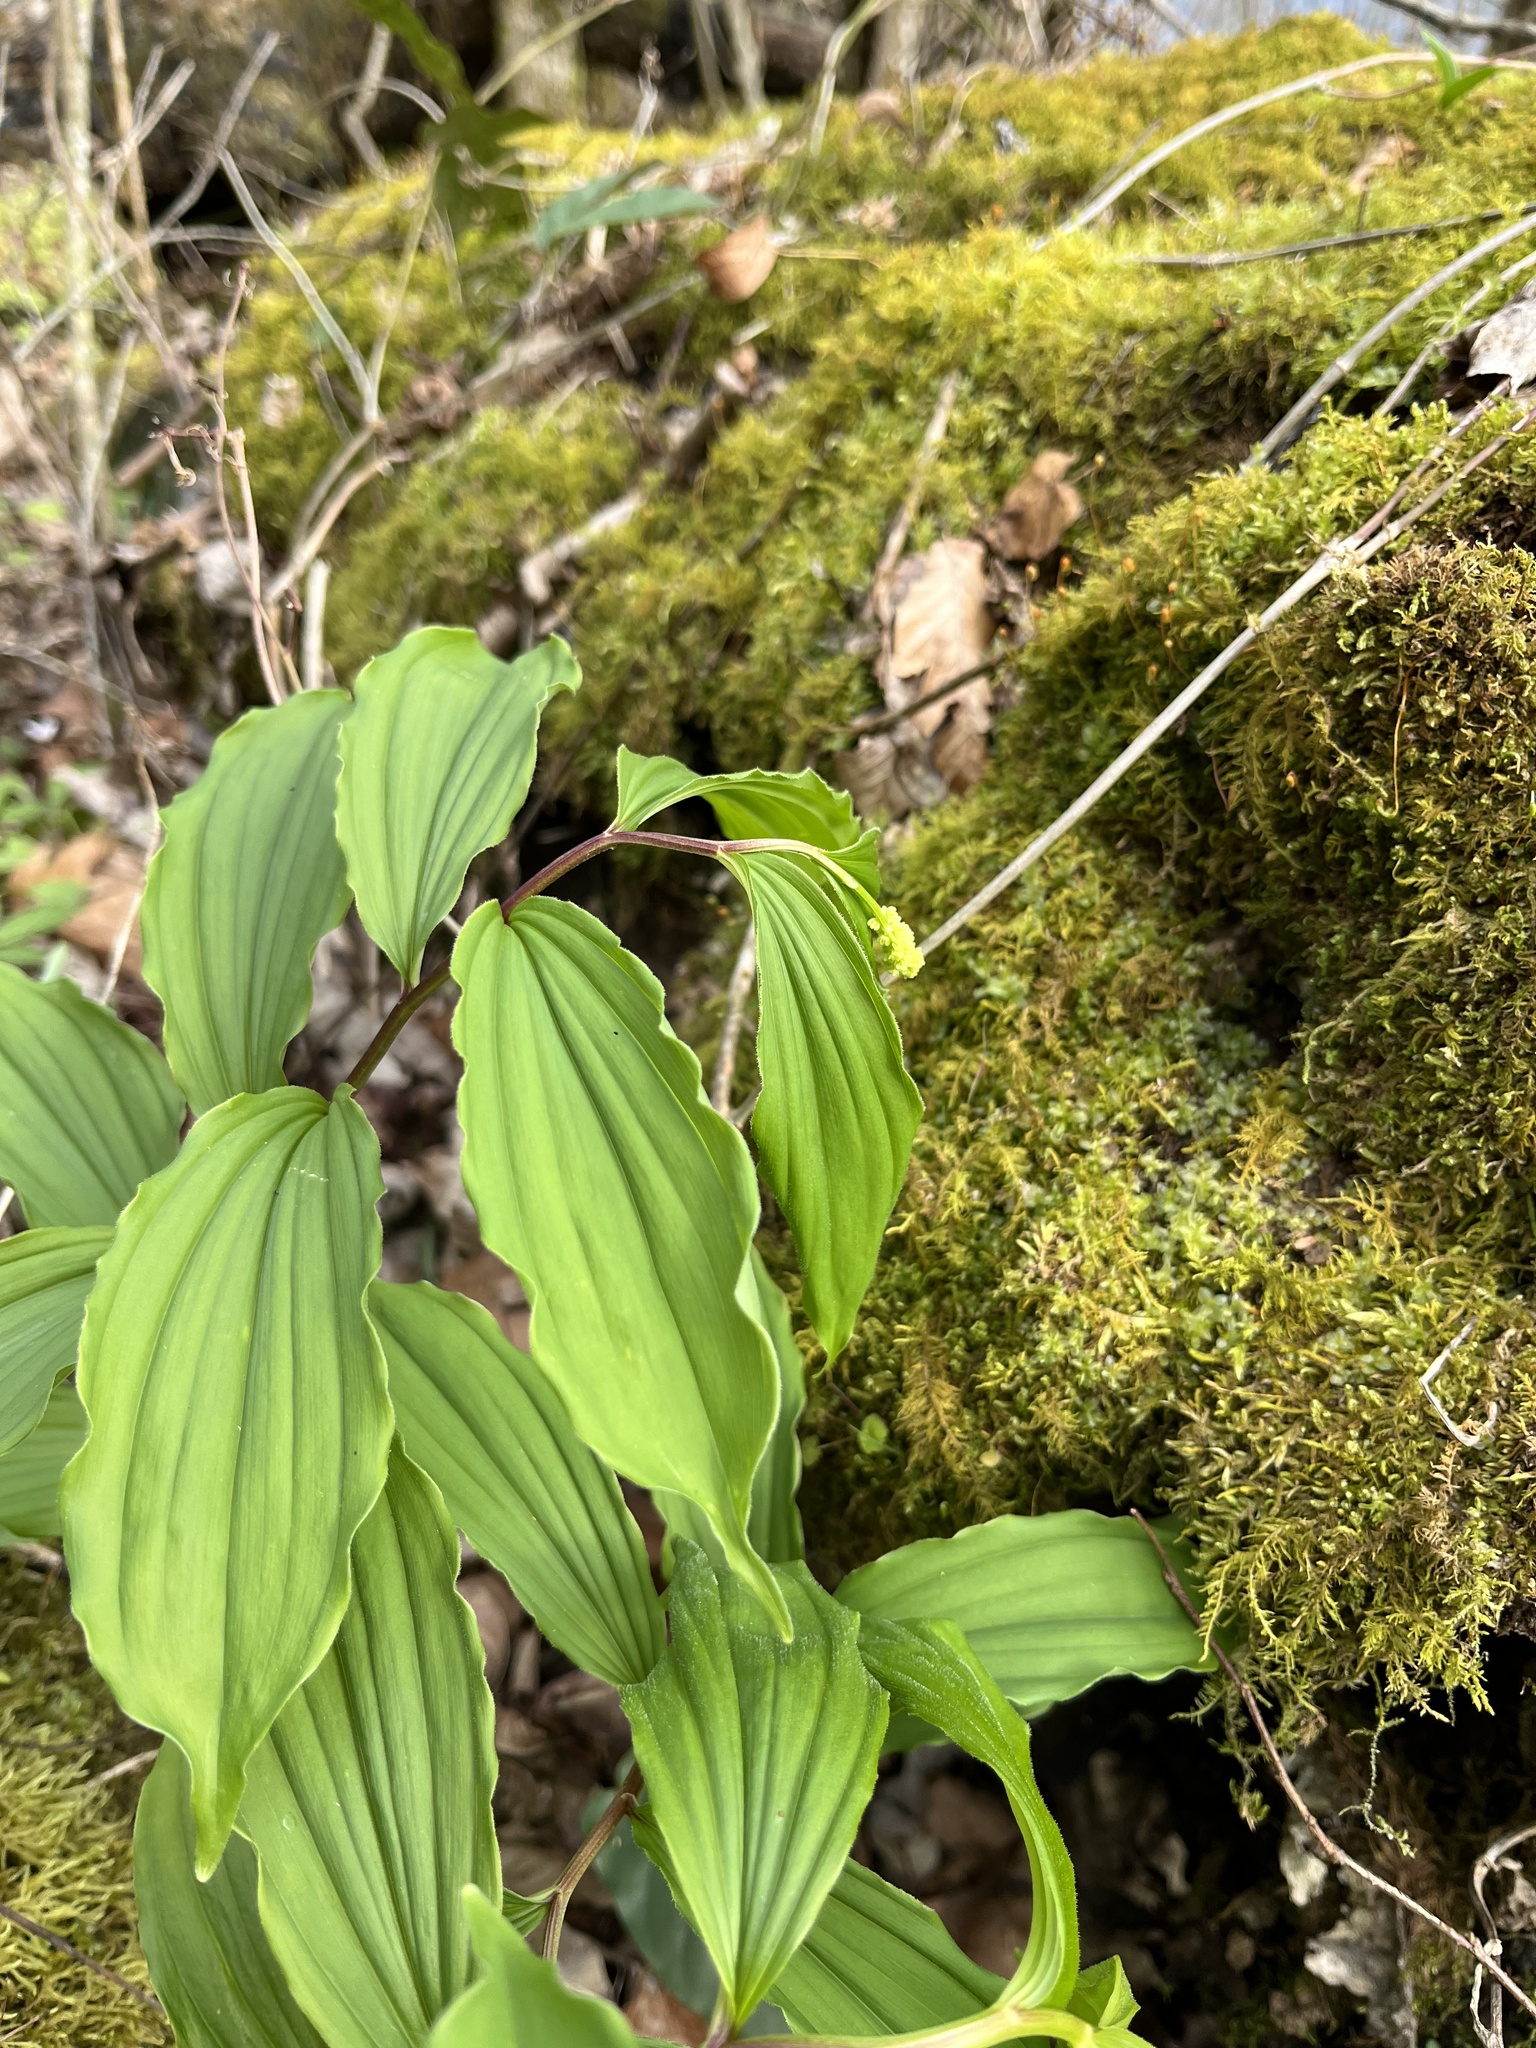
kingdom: Plantae
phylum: Tracheophyta
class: Liliopsida
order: Asparagales
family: Asparagaceae
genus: Maianthemum
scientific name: Maianthemum racemosum
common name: False spikenard
